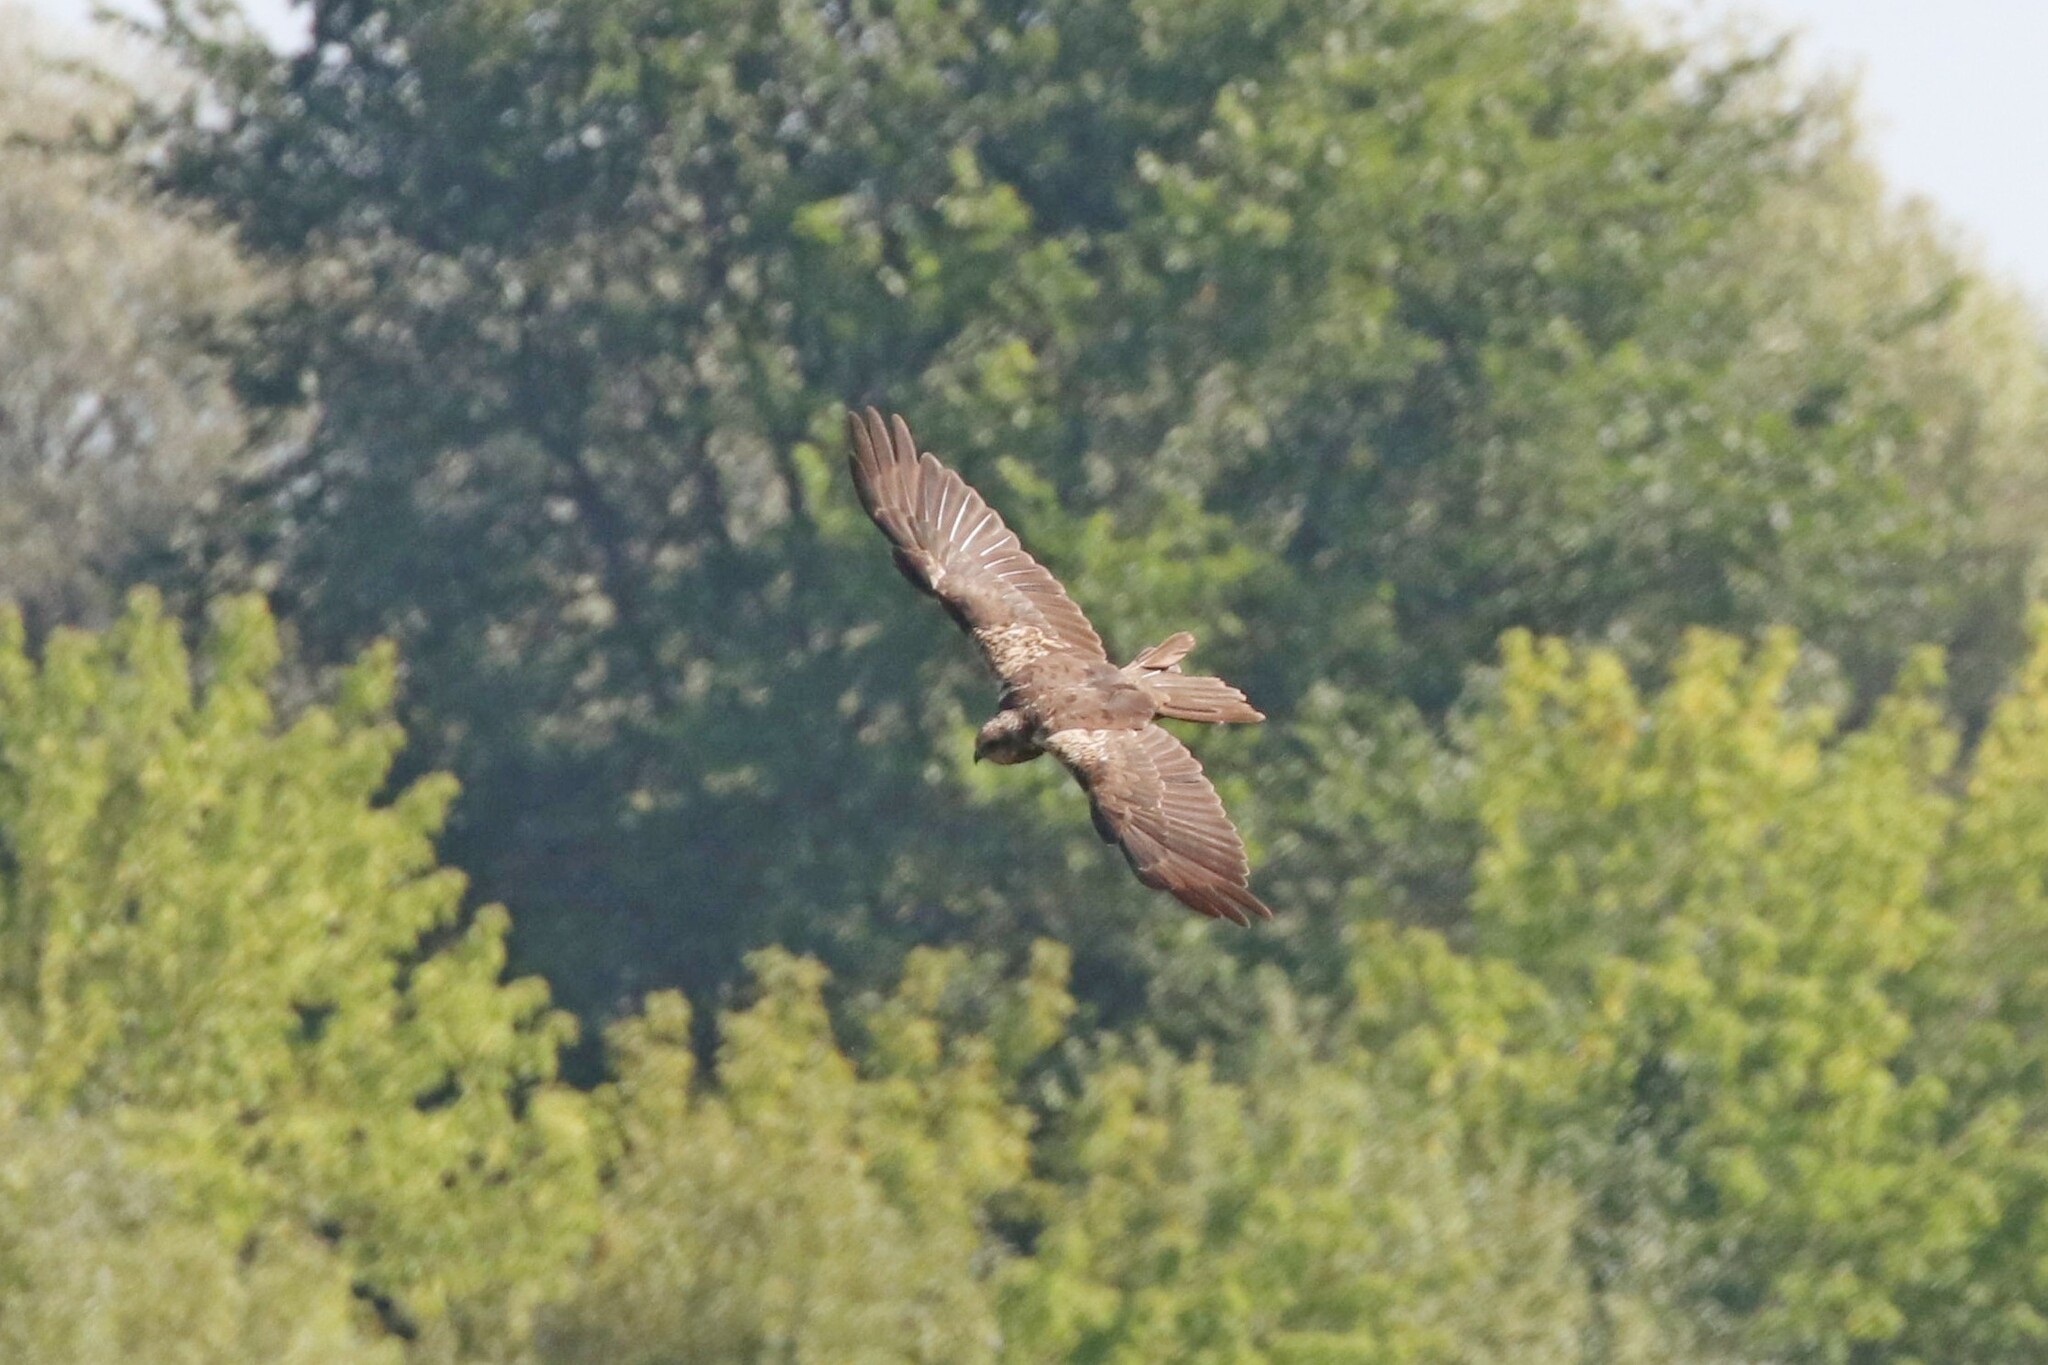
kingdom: Animalia
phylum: Chordata
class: Aves
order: Accipitriformes
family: Accipitridae
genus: Circus
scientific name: Circus aeruginosus
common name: Western marsh harrier
